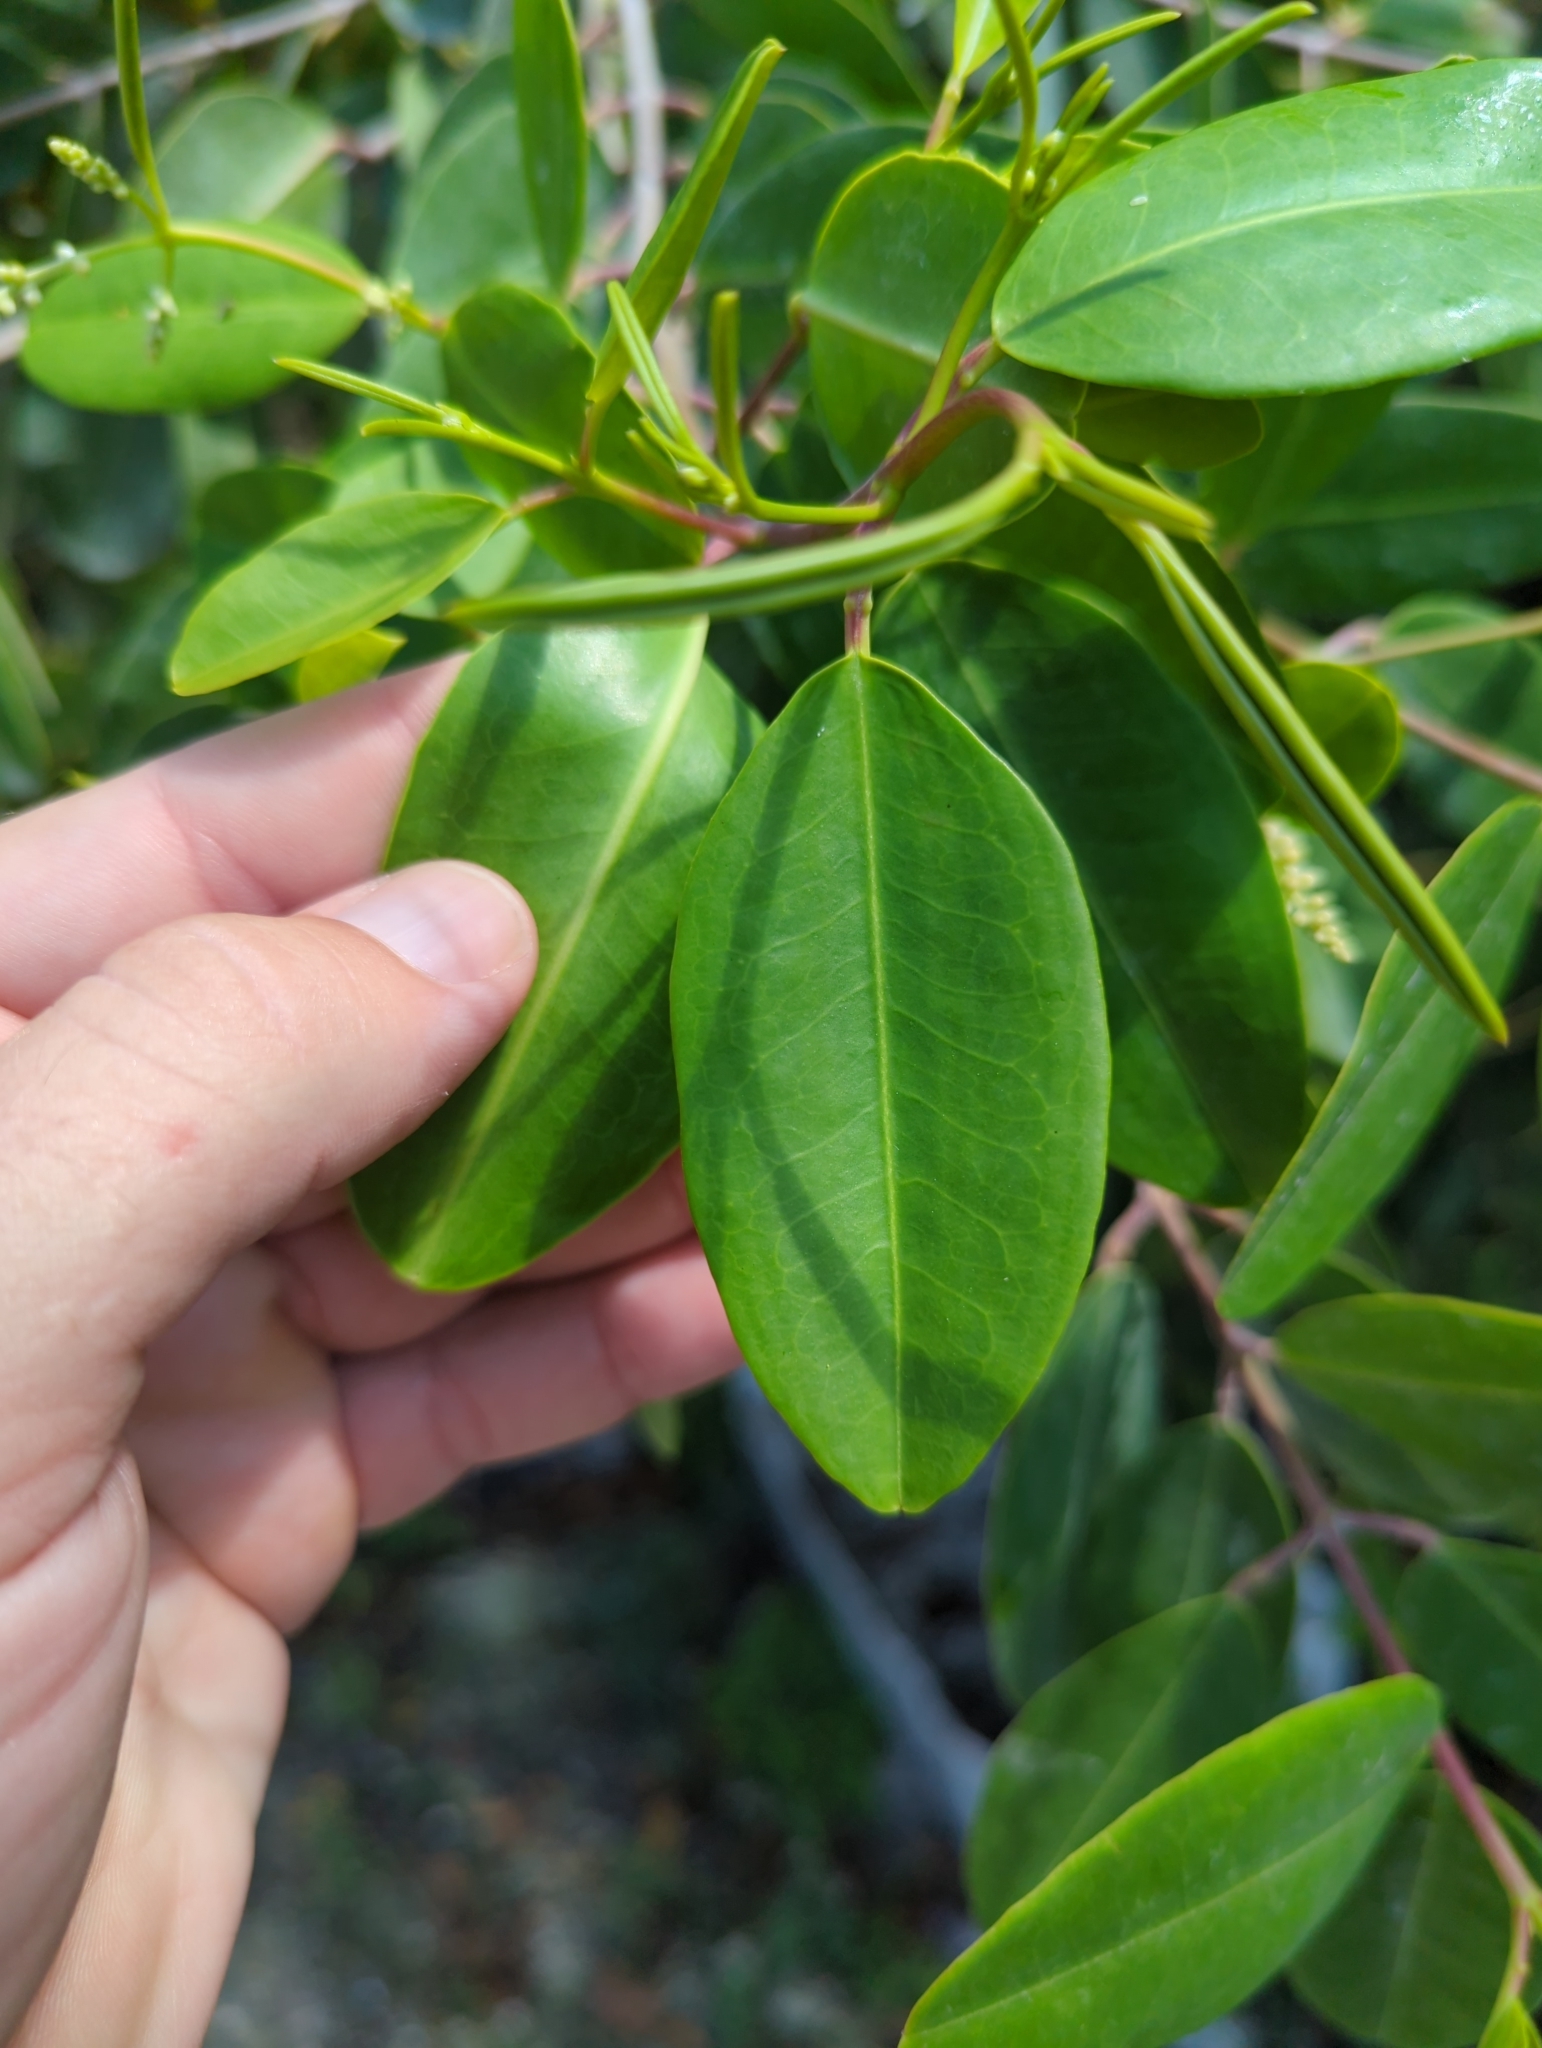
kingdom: Plantae
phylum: Tracheophyta
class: Magnoliopsida
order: Myrtales
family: Combretaceae
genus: Laguncularia
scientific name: Laguncularia racemosa
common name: White mangrove
